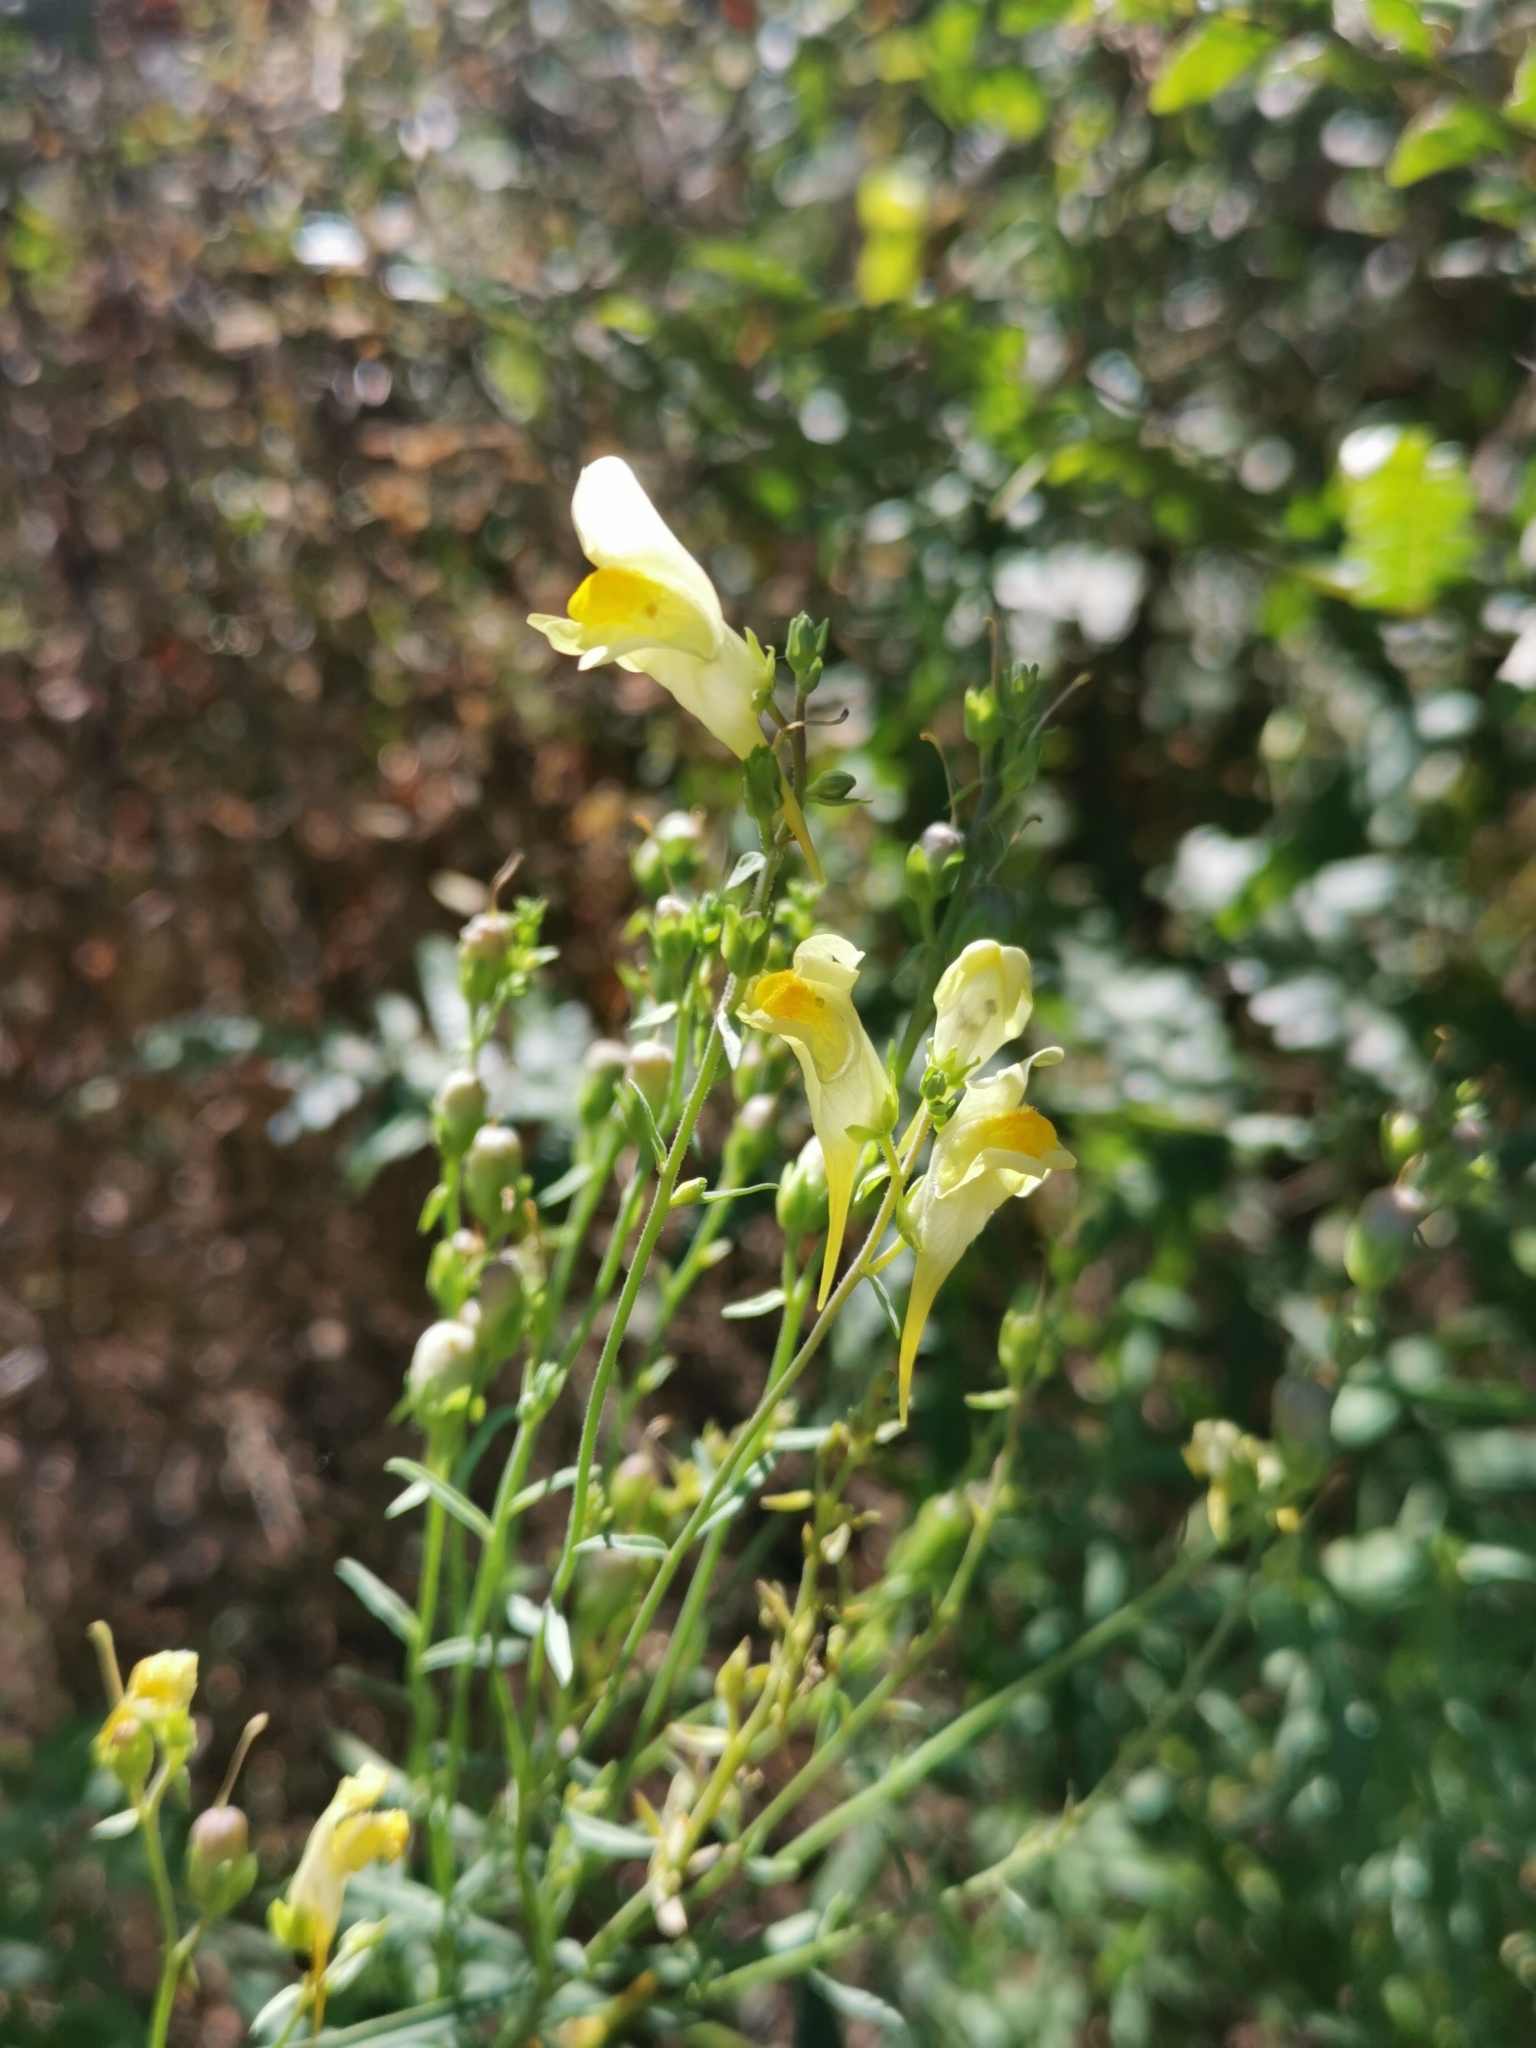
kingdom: Plantae
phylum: Tracheophyta
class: Magnoliopsida
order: Lamiales
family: Plantaginaceae
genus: Linaria
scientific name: Linaria vulgaris
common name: Butter and eggs
